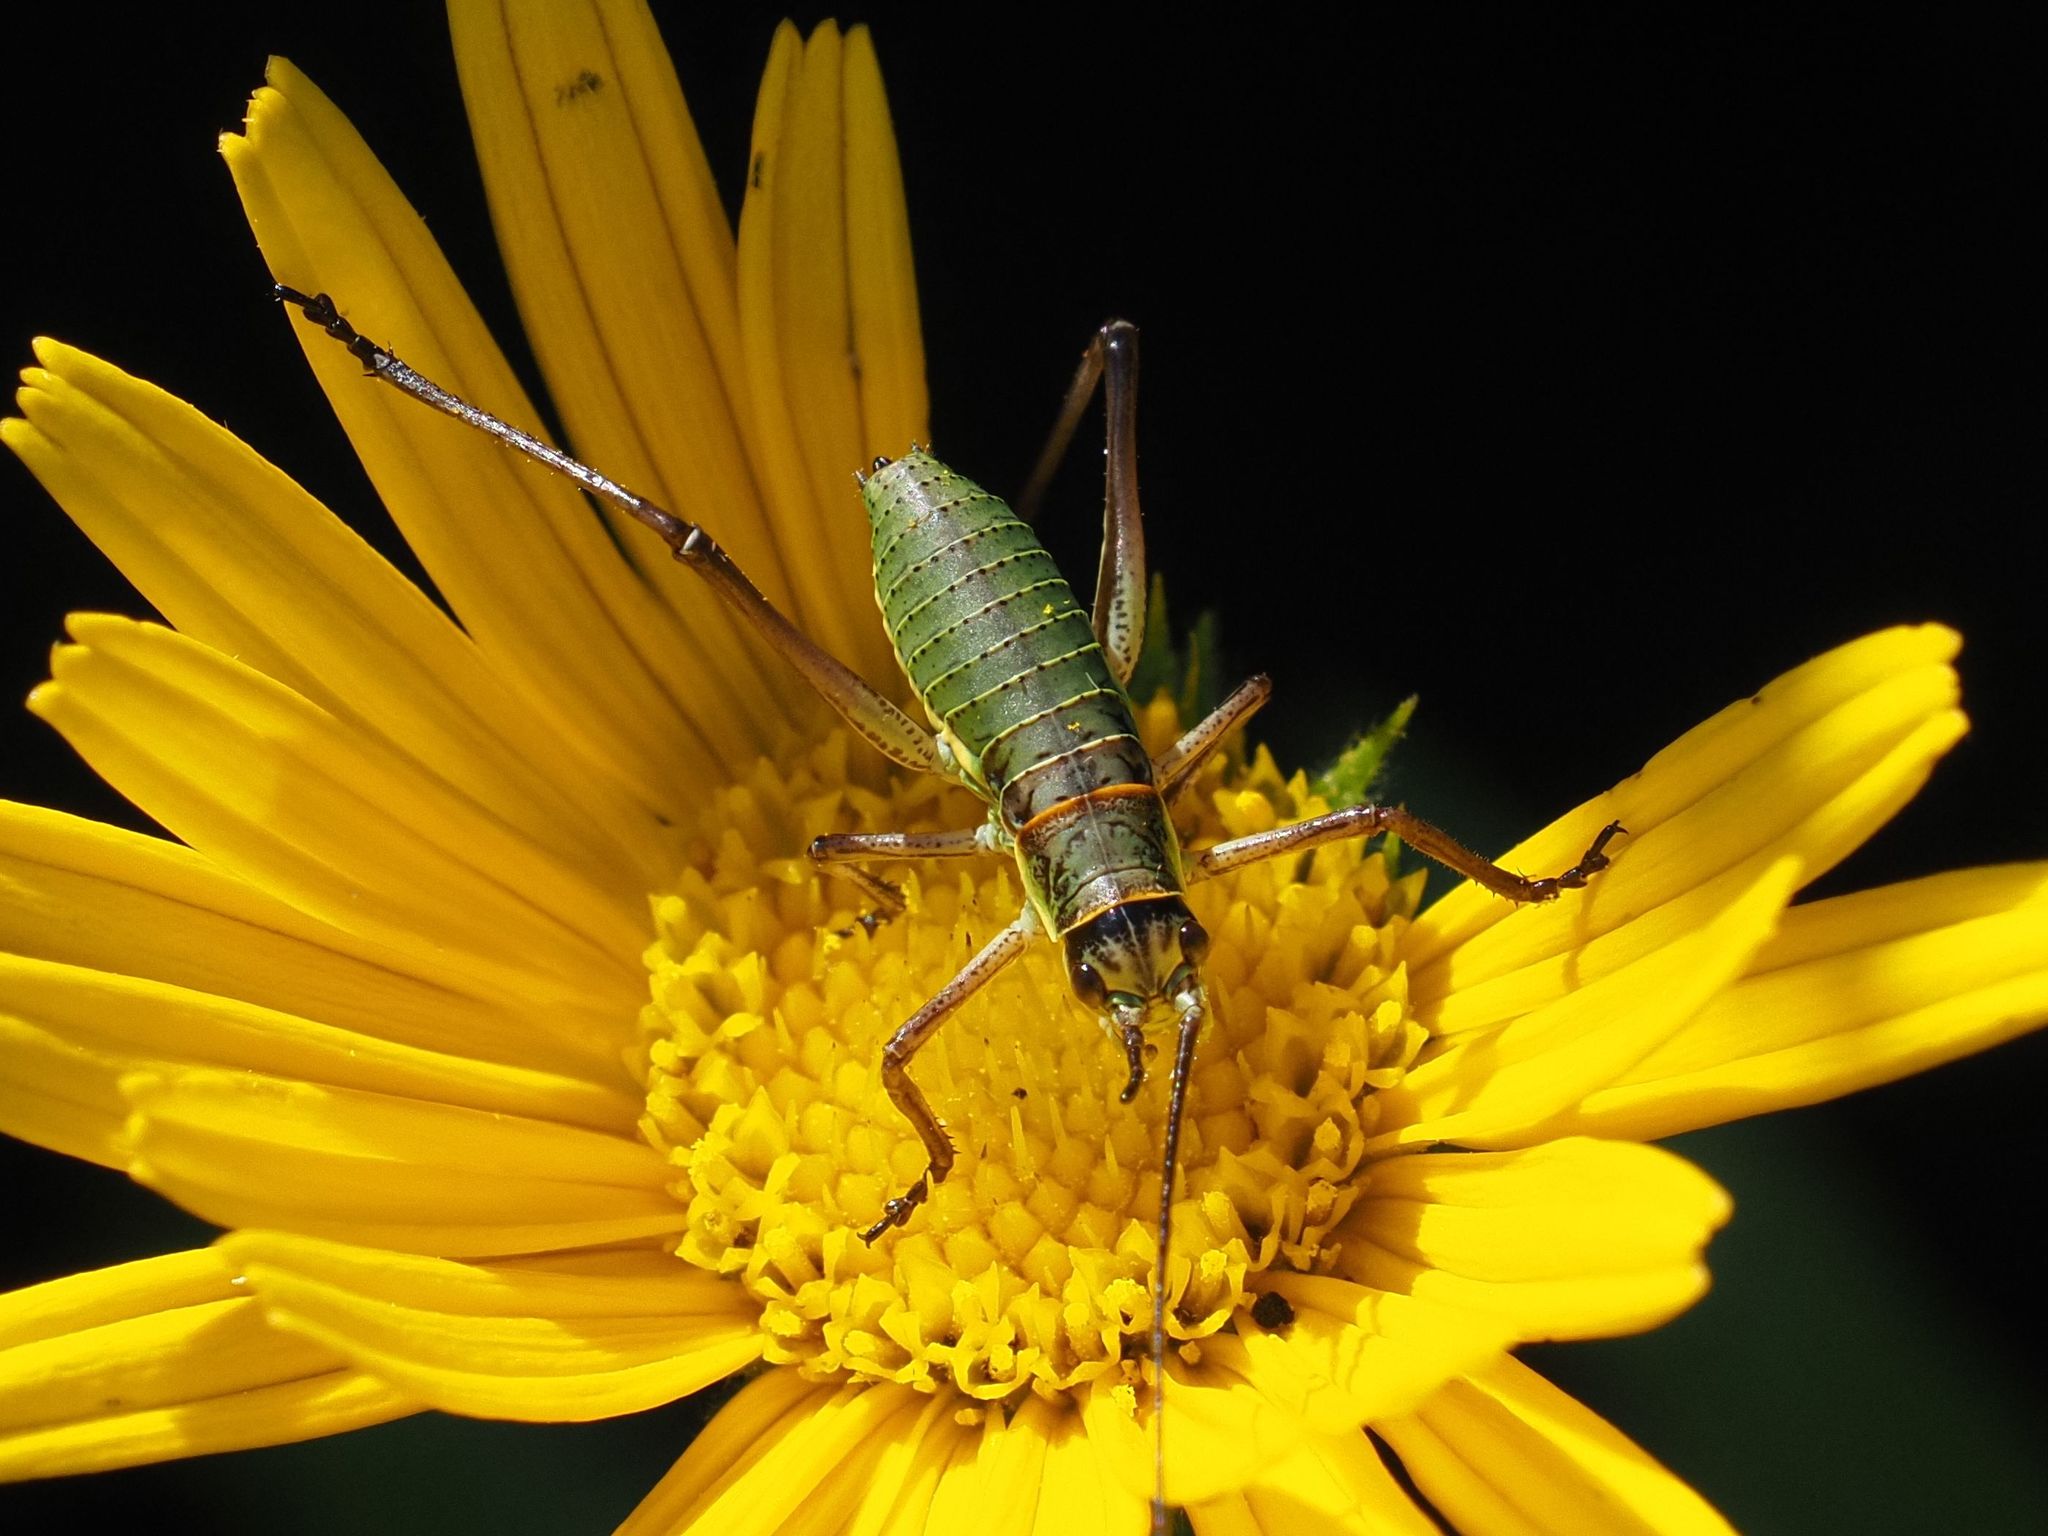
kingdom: Animalia
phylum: Arthropoda
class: Insecta
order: Orthoptera
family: Tettigoniidae
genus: Ephippiger
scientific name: Ephippiger ephippiger
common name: Eastern saddle bush-cricket
